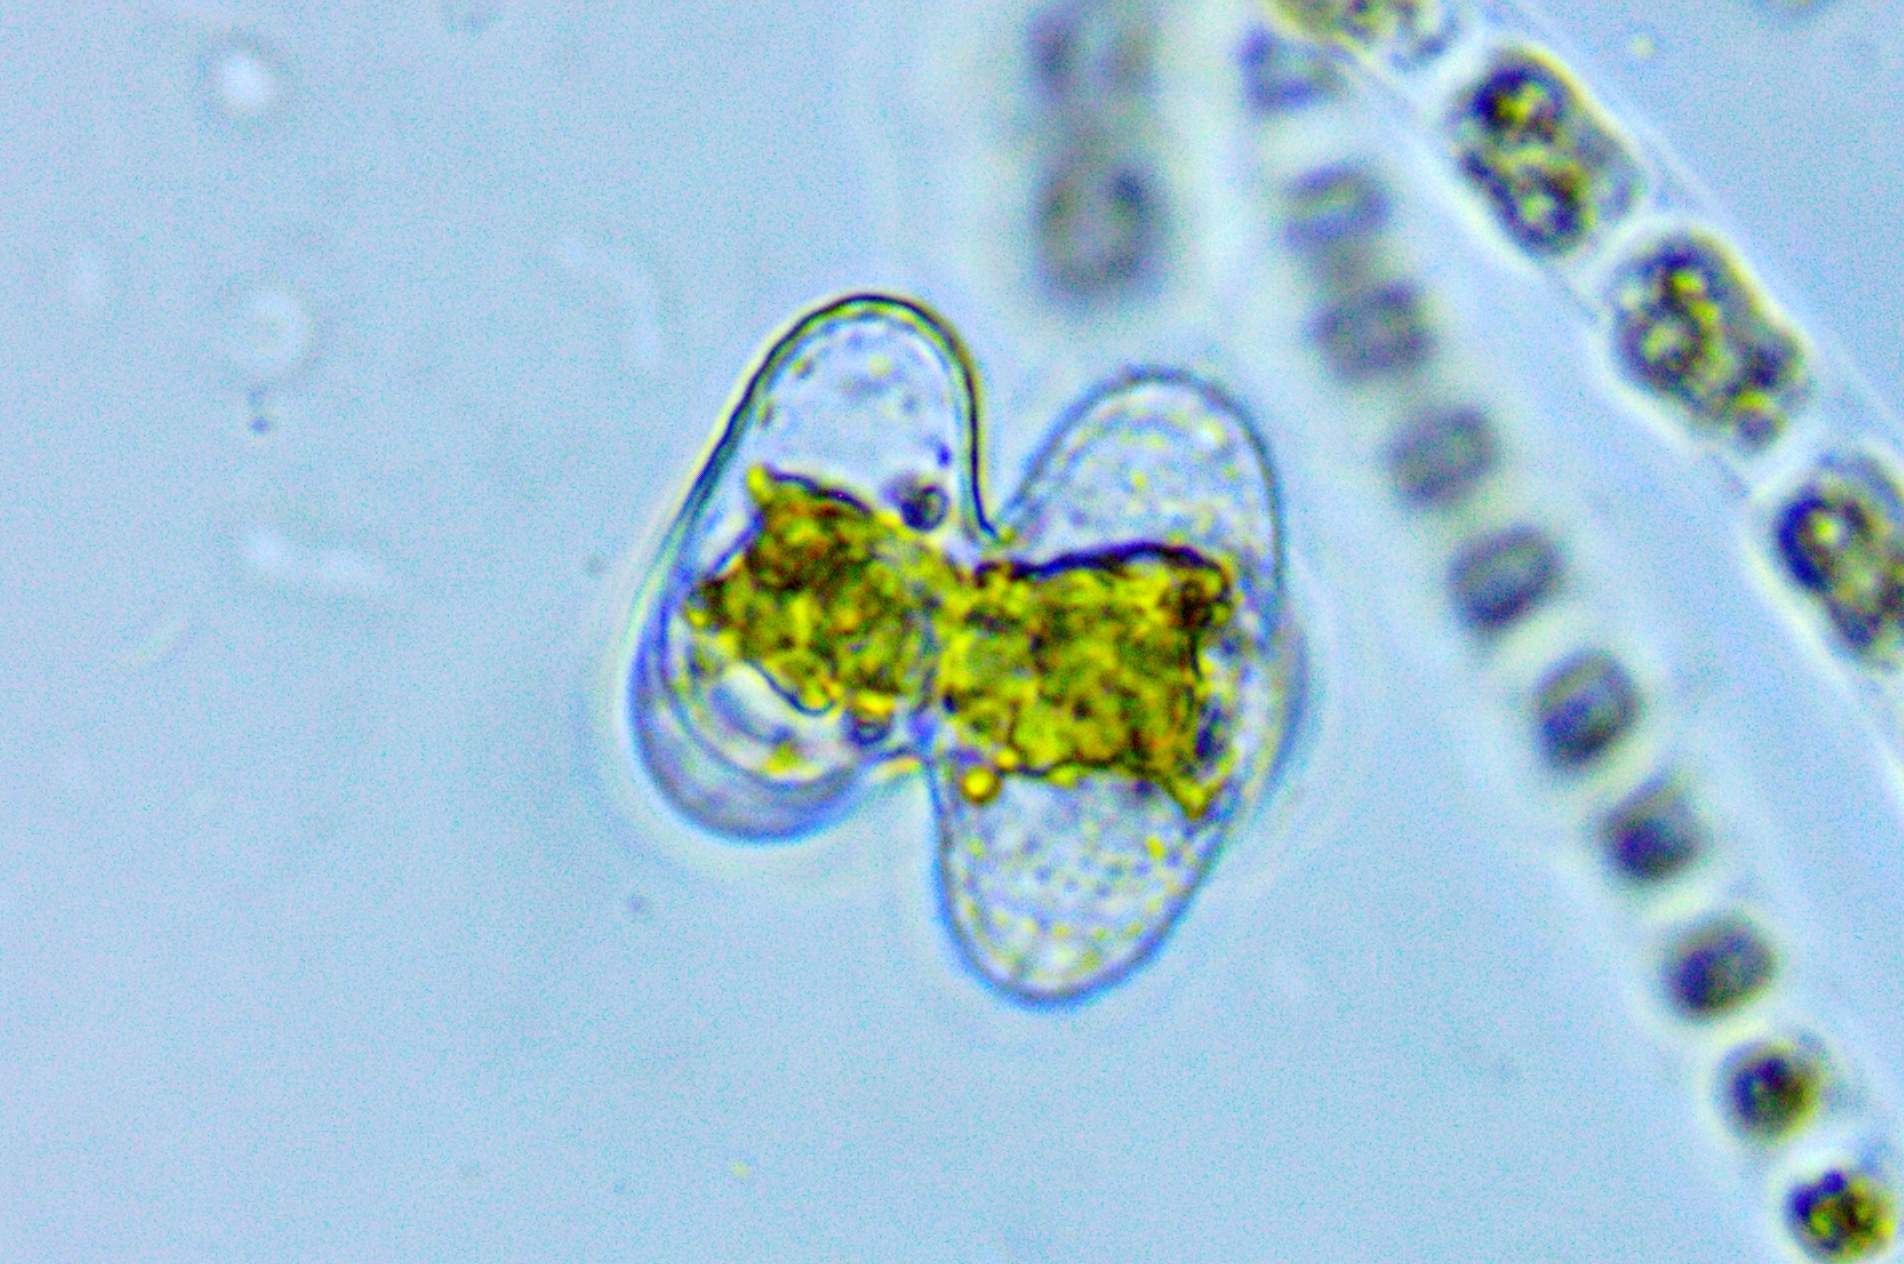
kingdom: Plantae
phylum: Charophyta
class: Conjugatophyceae
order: Desmidiales
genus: Staurastrum
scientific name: Staurastrum lapponicum
